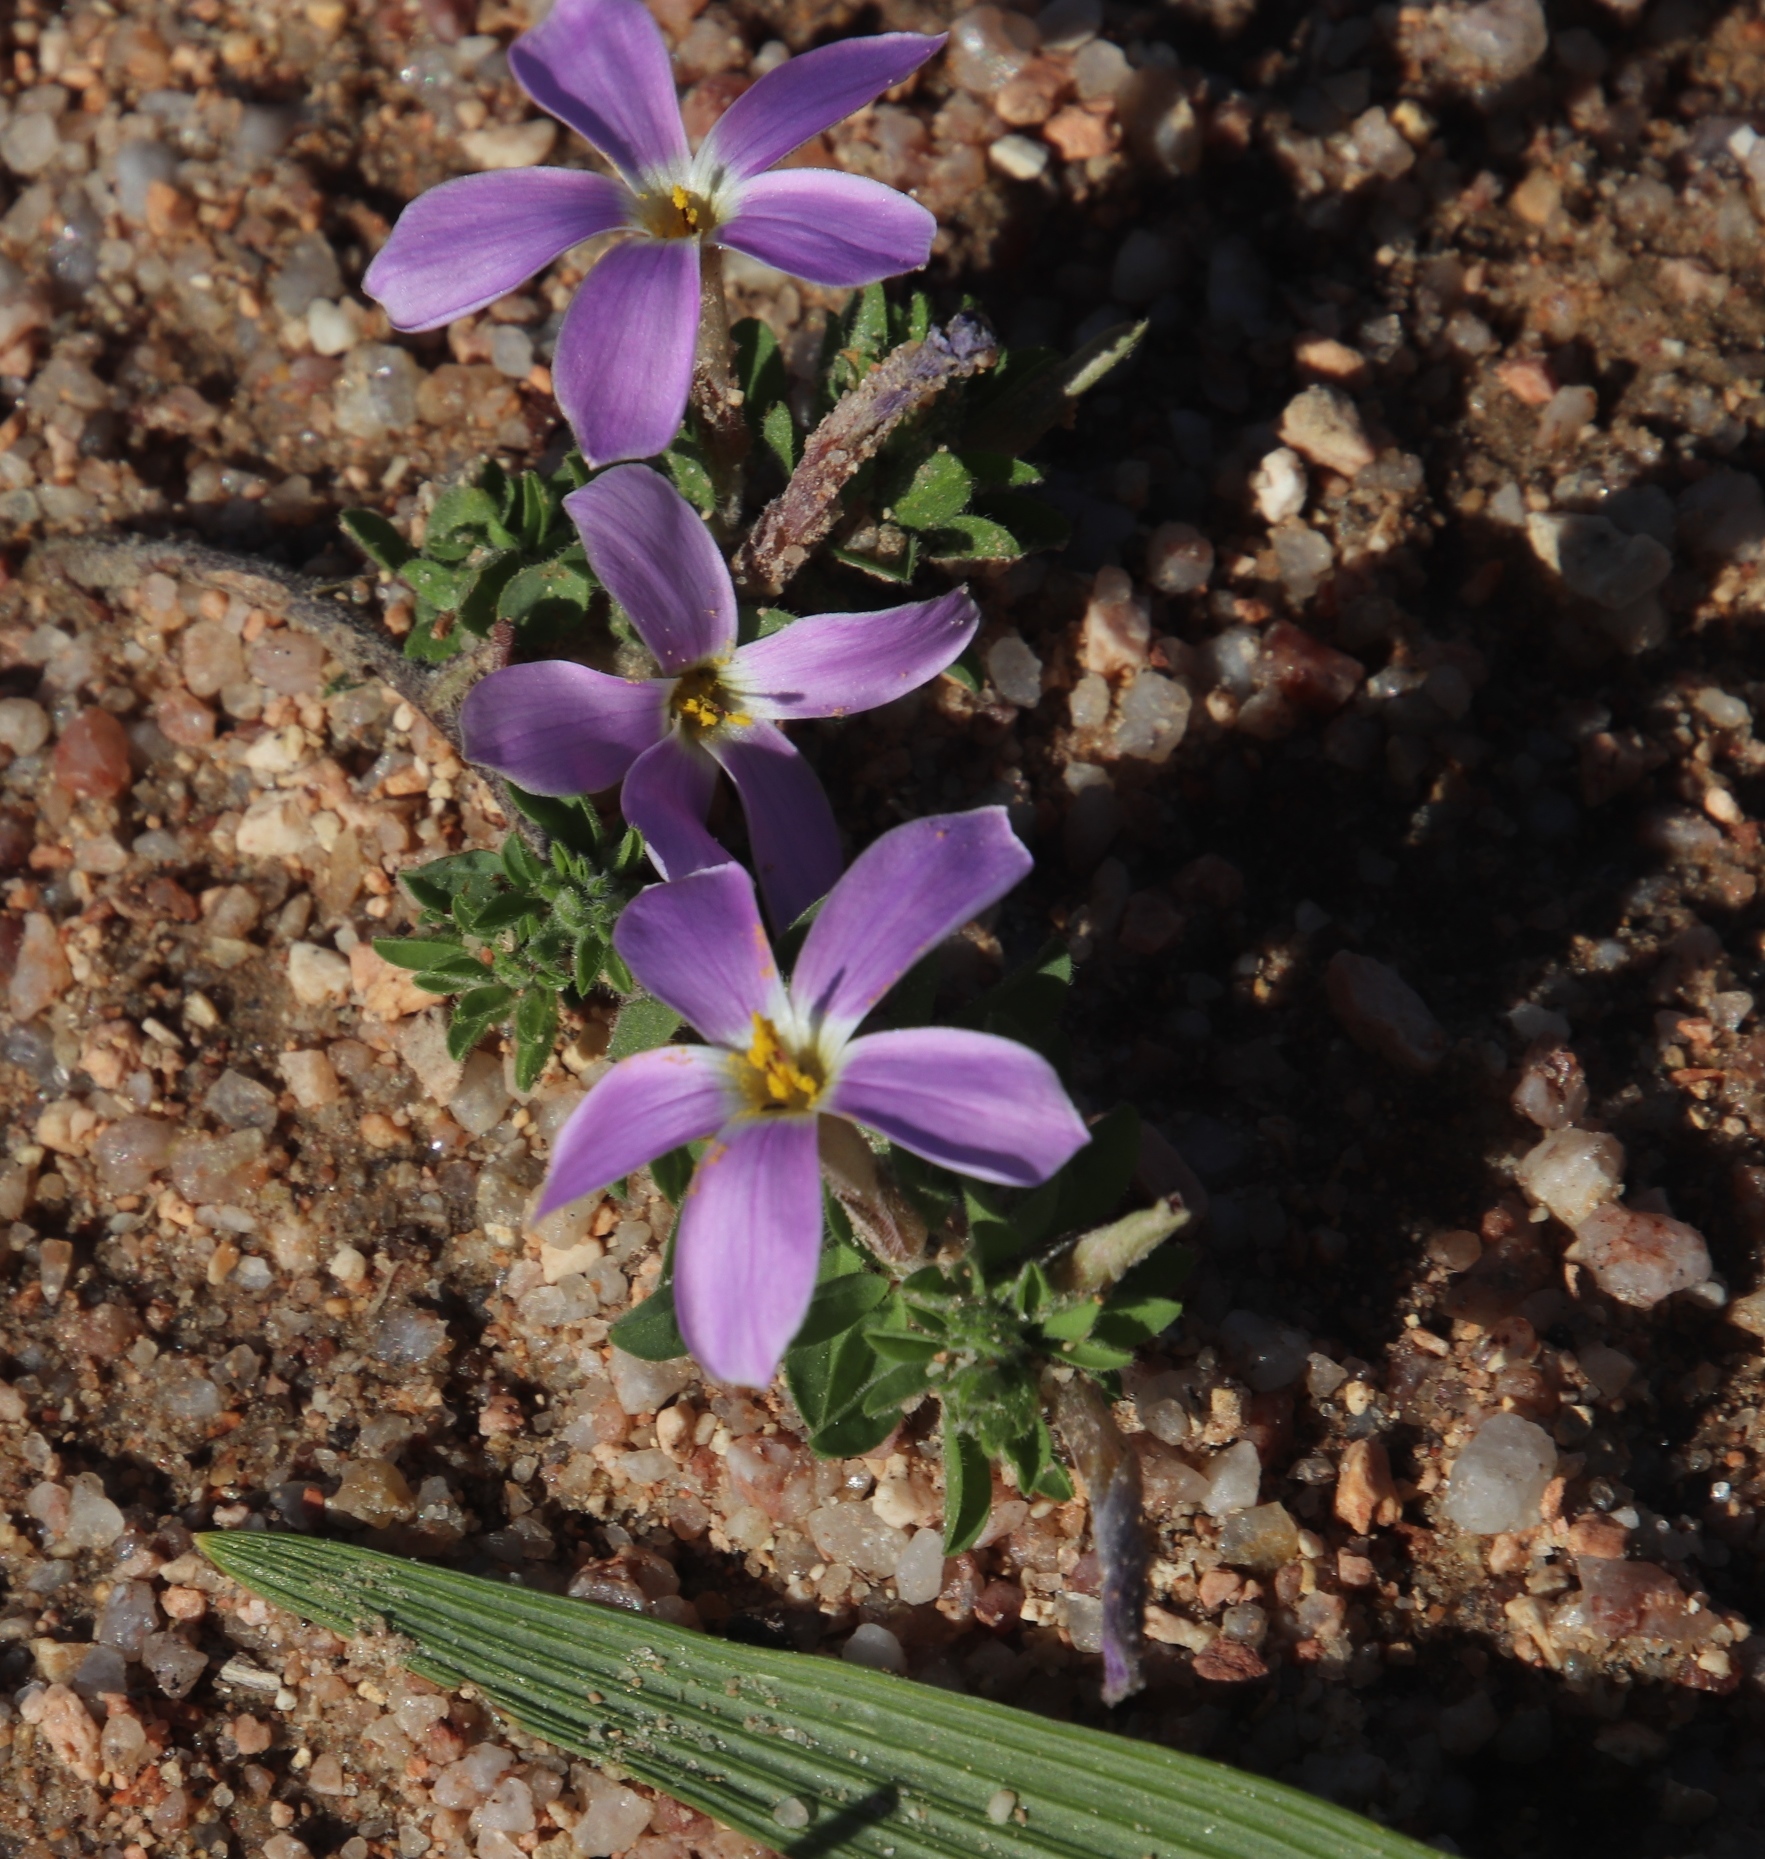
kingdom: Plantae
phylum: Tracheophyta
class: Magnoliopsida
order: Oxalidales
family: Oxalidaceae
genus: Oxalis
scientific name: Oxalis hirta
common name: Tropical woodsorrel
